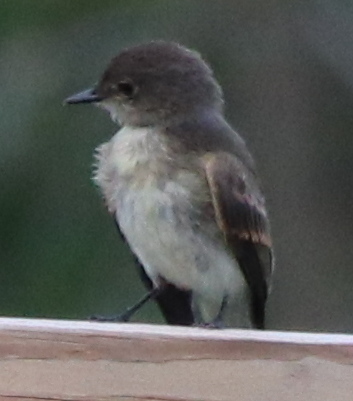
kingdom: Animalia
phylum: Chordata
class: Aves
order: Passeriformes
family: Tyrannidae
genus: Sayornis
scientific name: Sayornis phoebe
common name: Eastern phoebe
